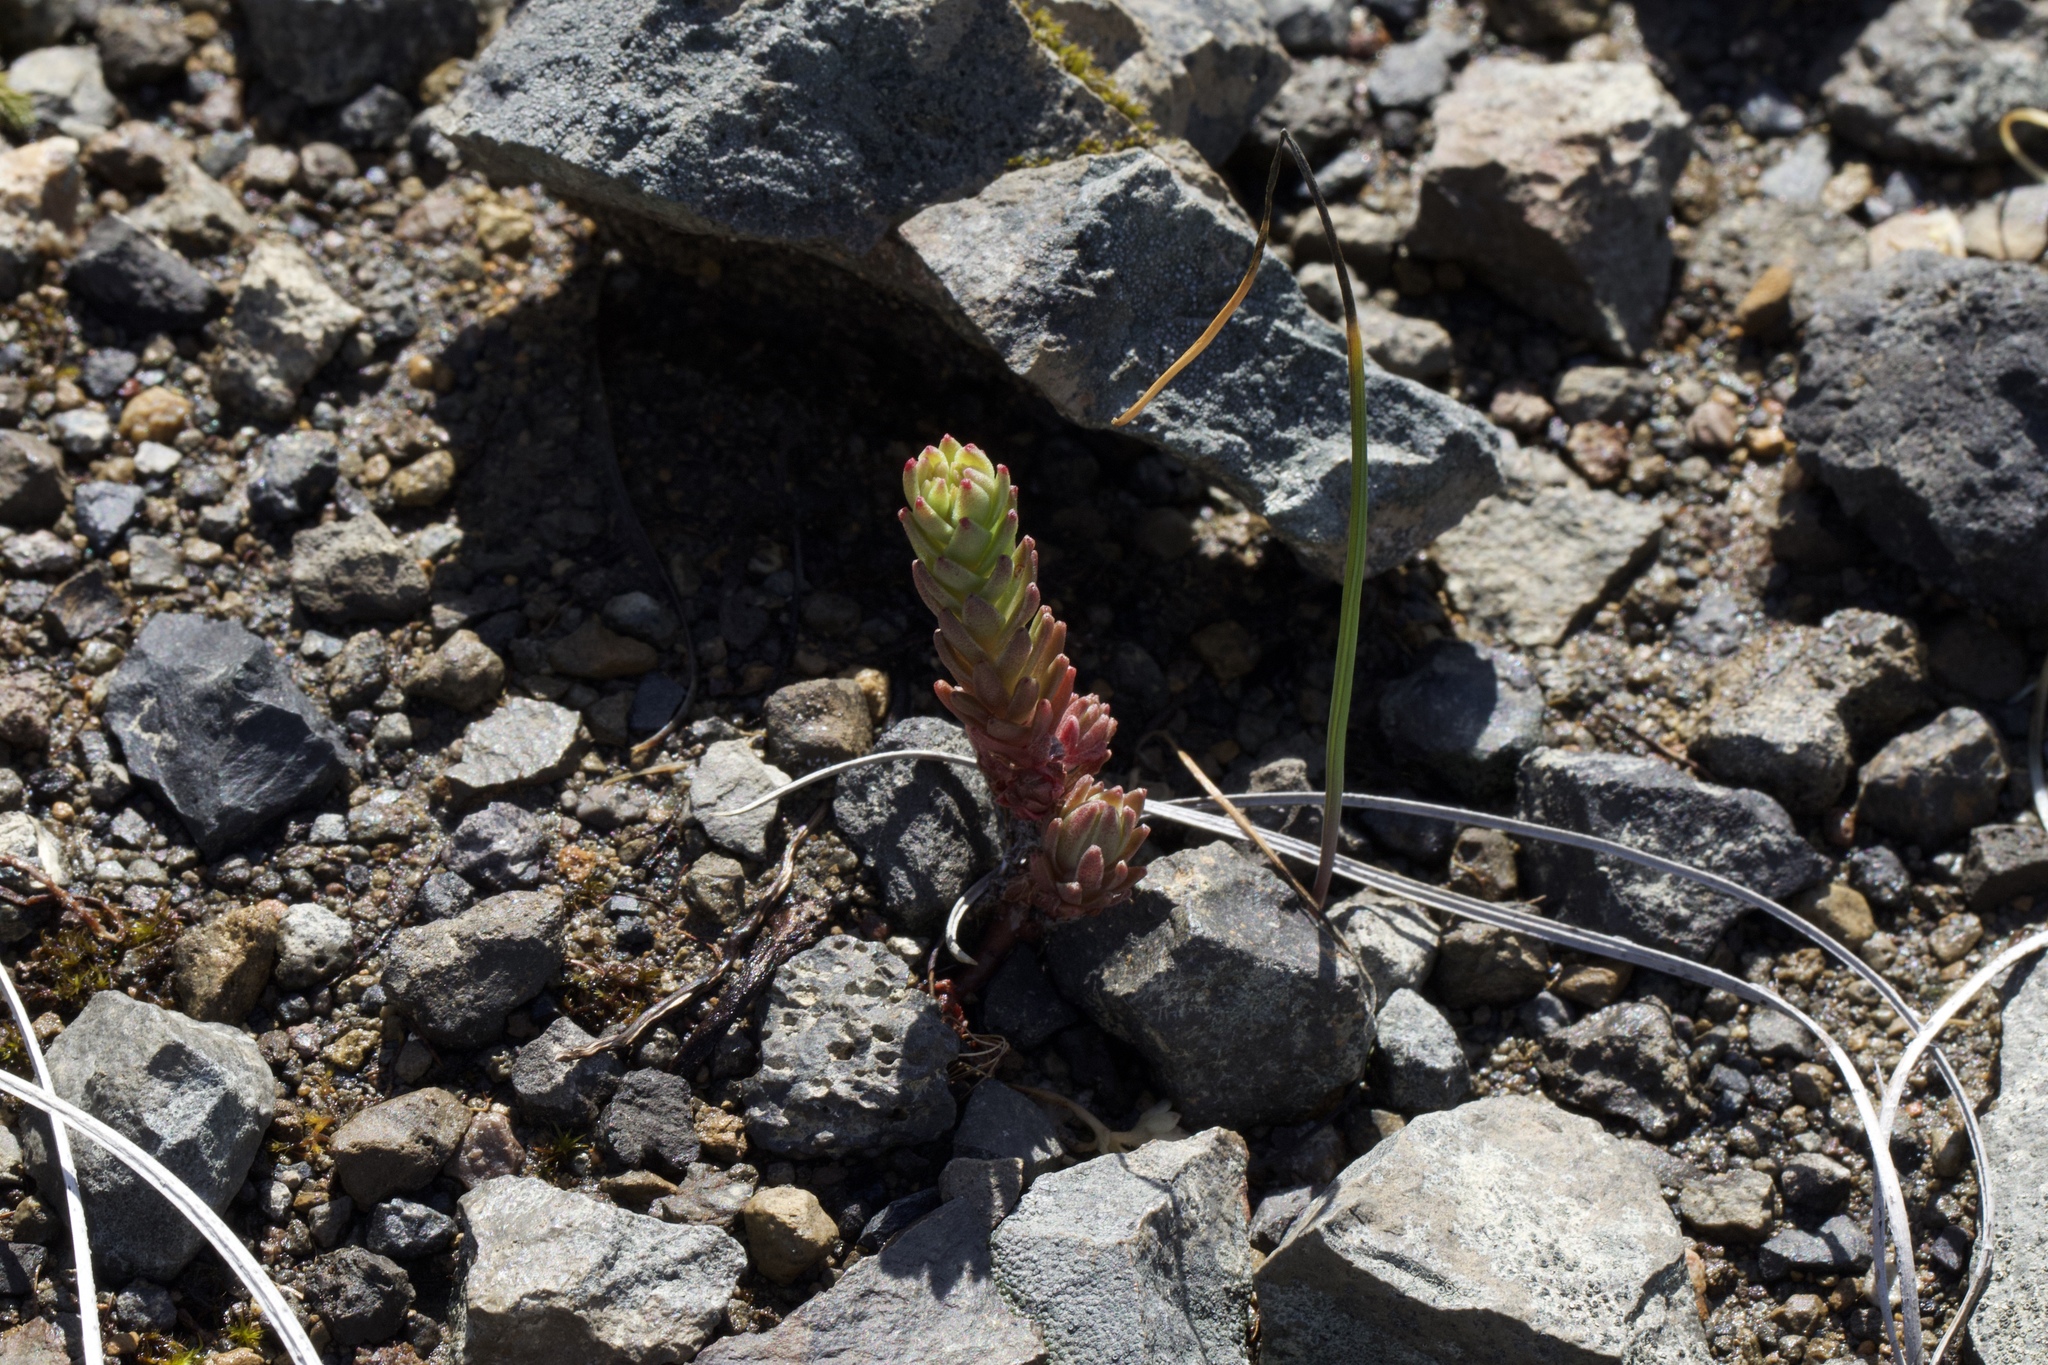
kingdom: Plantae
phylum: Tracheophyta
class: Magnoliopsida
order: Saxifragales
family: Crassulaceae
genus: Sedum
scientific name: Sedum radiatum
